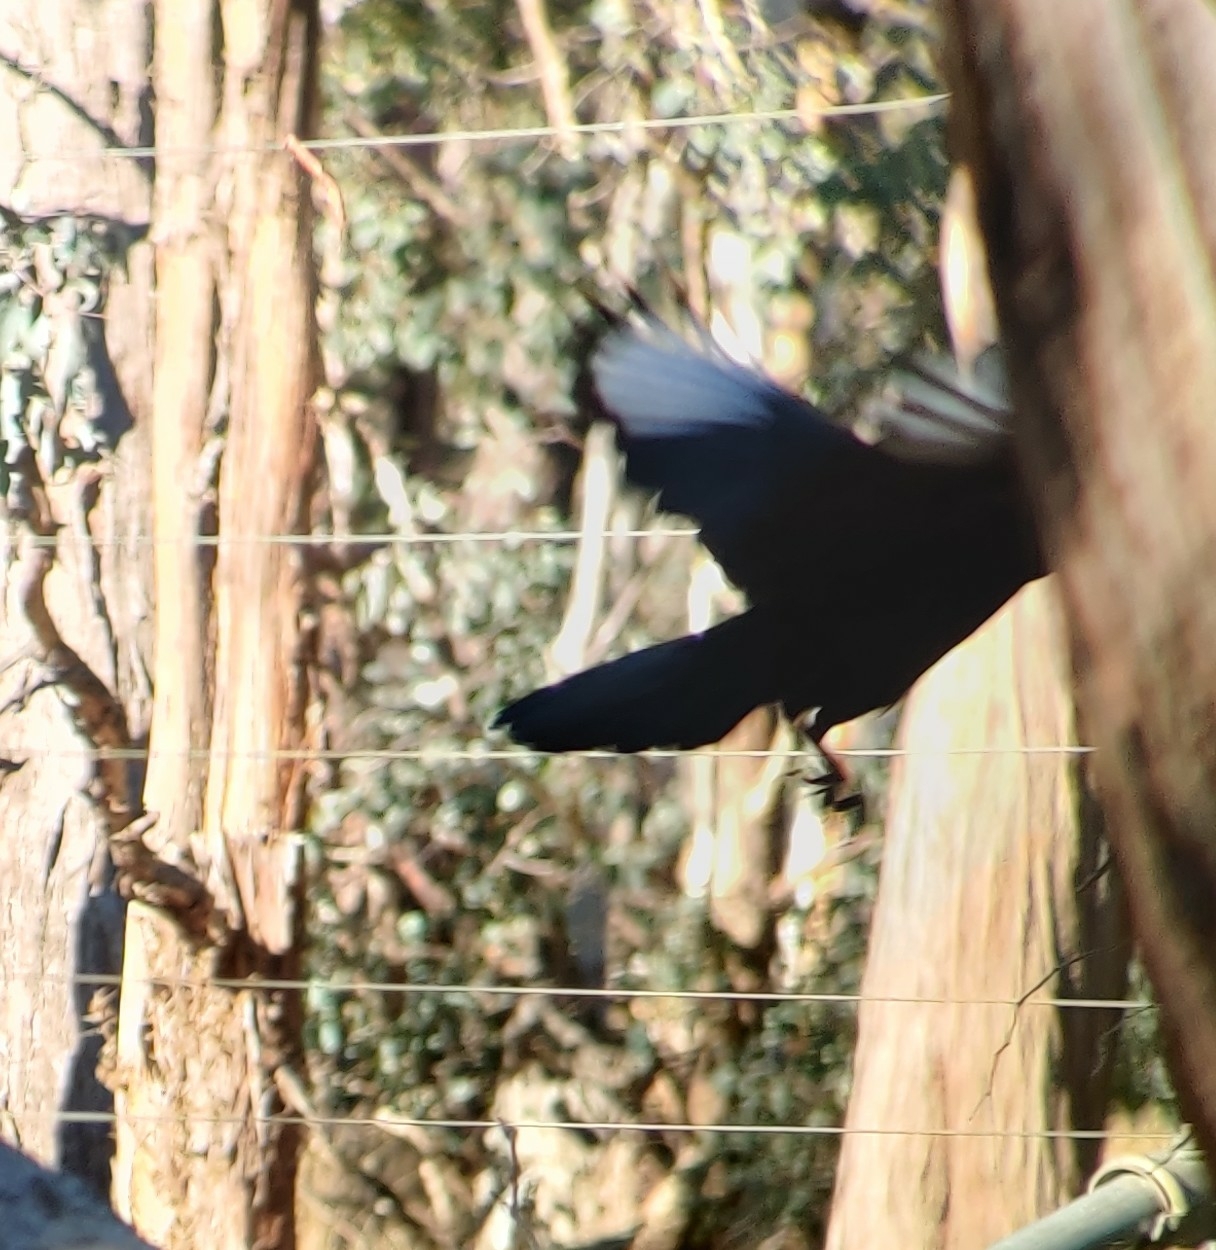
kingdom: Animalia
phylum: Chordata
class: Aves
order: Passeriformes
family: Corcoracidae
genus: Corcorax
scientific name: Corcorax melanoramphos
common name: White-winged chough
